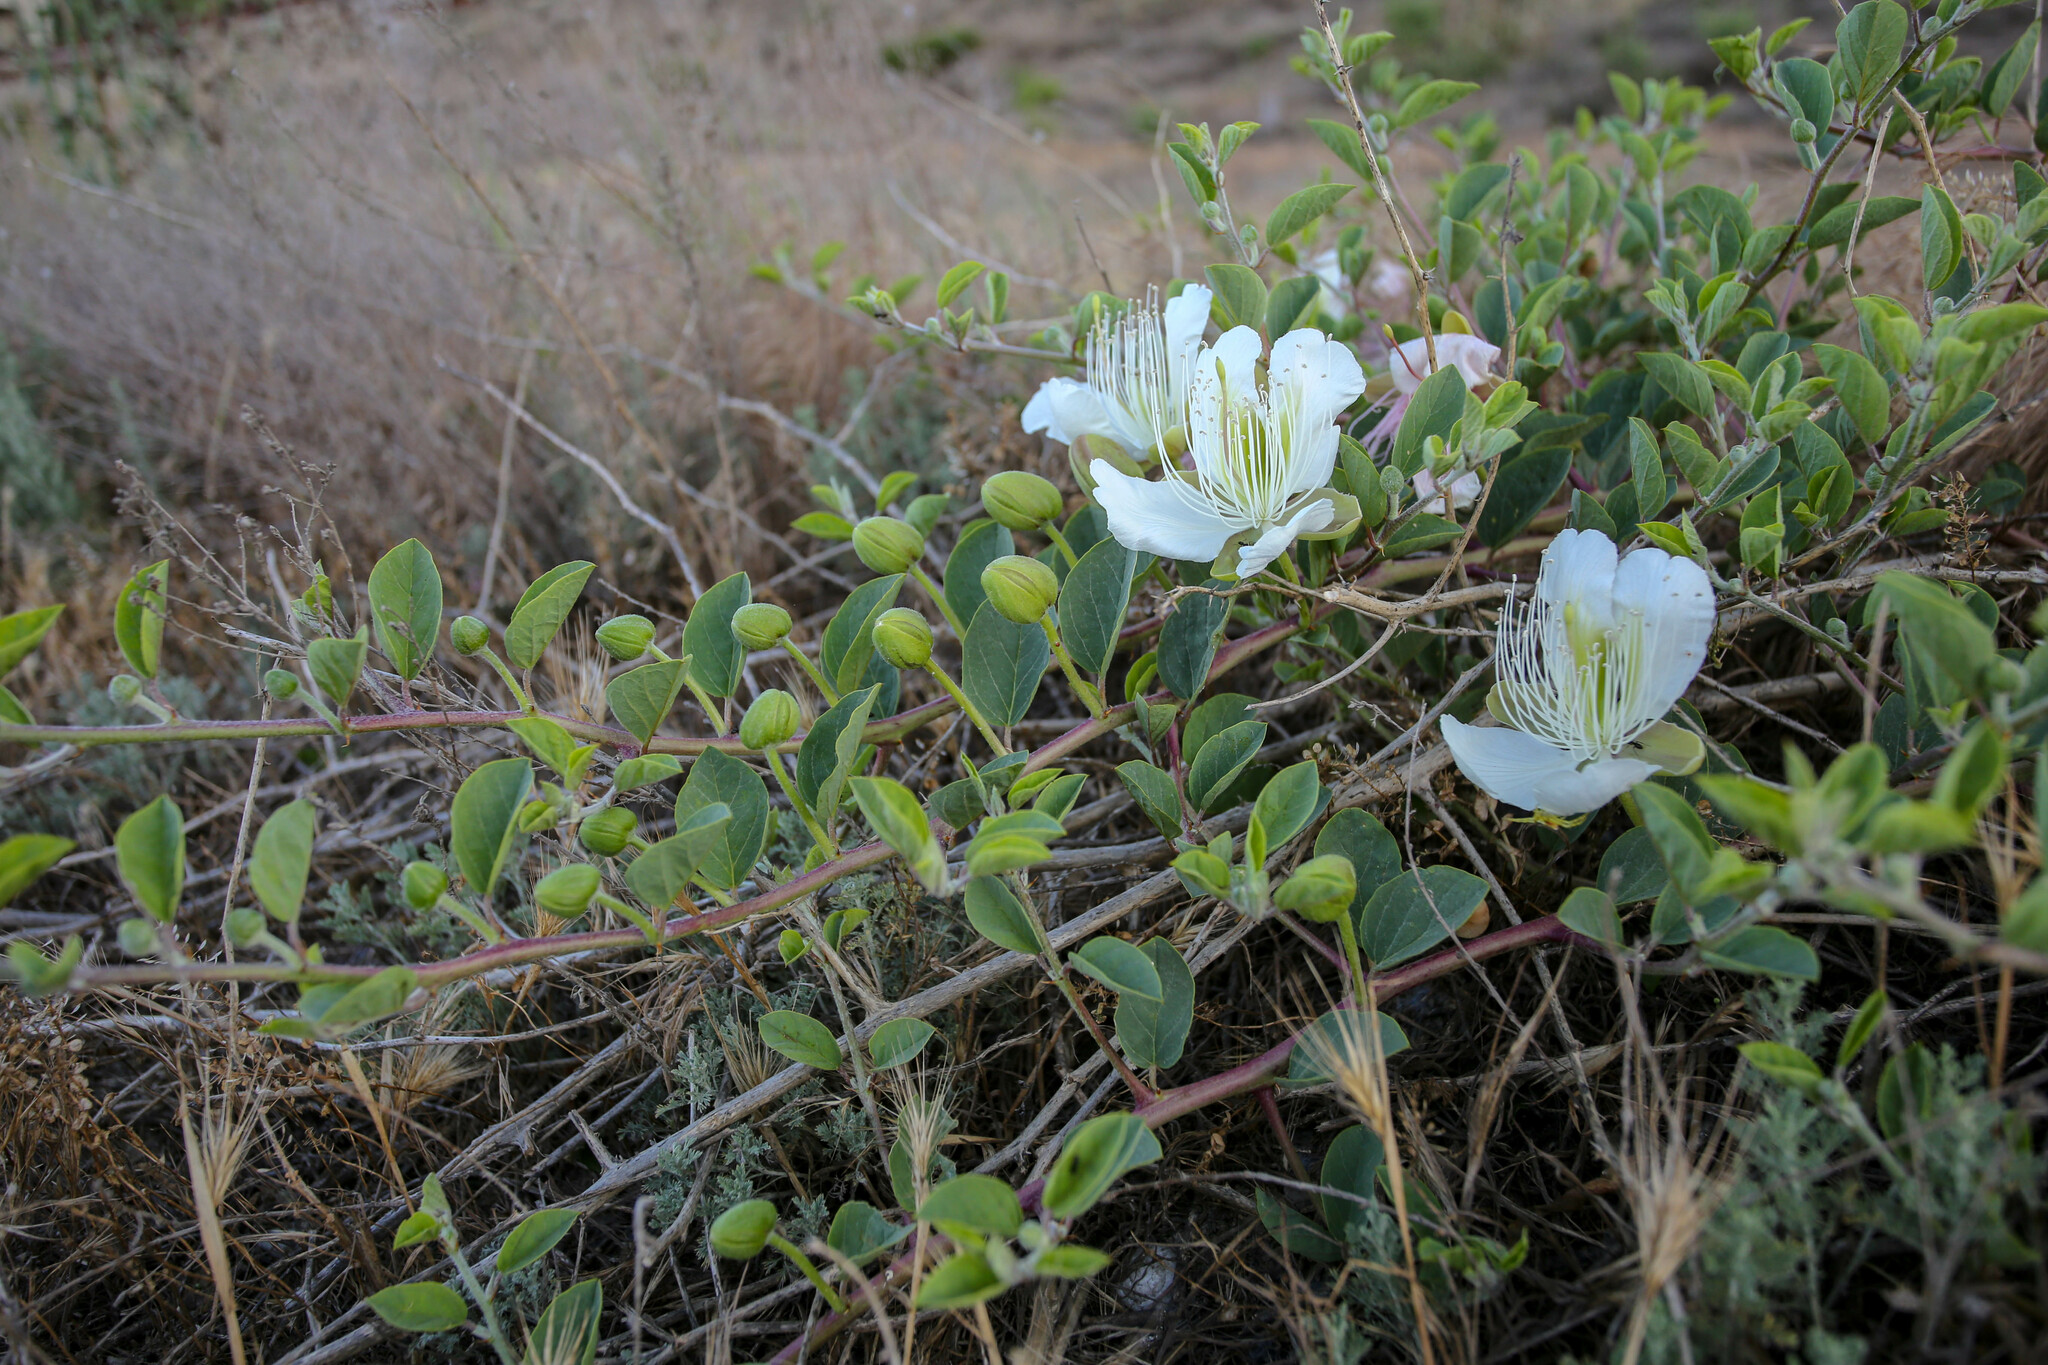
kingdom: Plantae
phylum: Tracheophyta
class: Magnoliopsida
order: Brassicales
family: Capparaceae
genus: Capparis
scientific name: Capparis spinosa
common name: Caper
